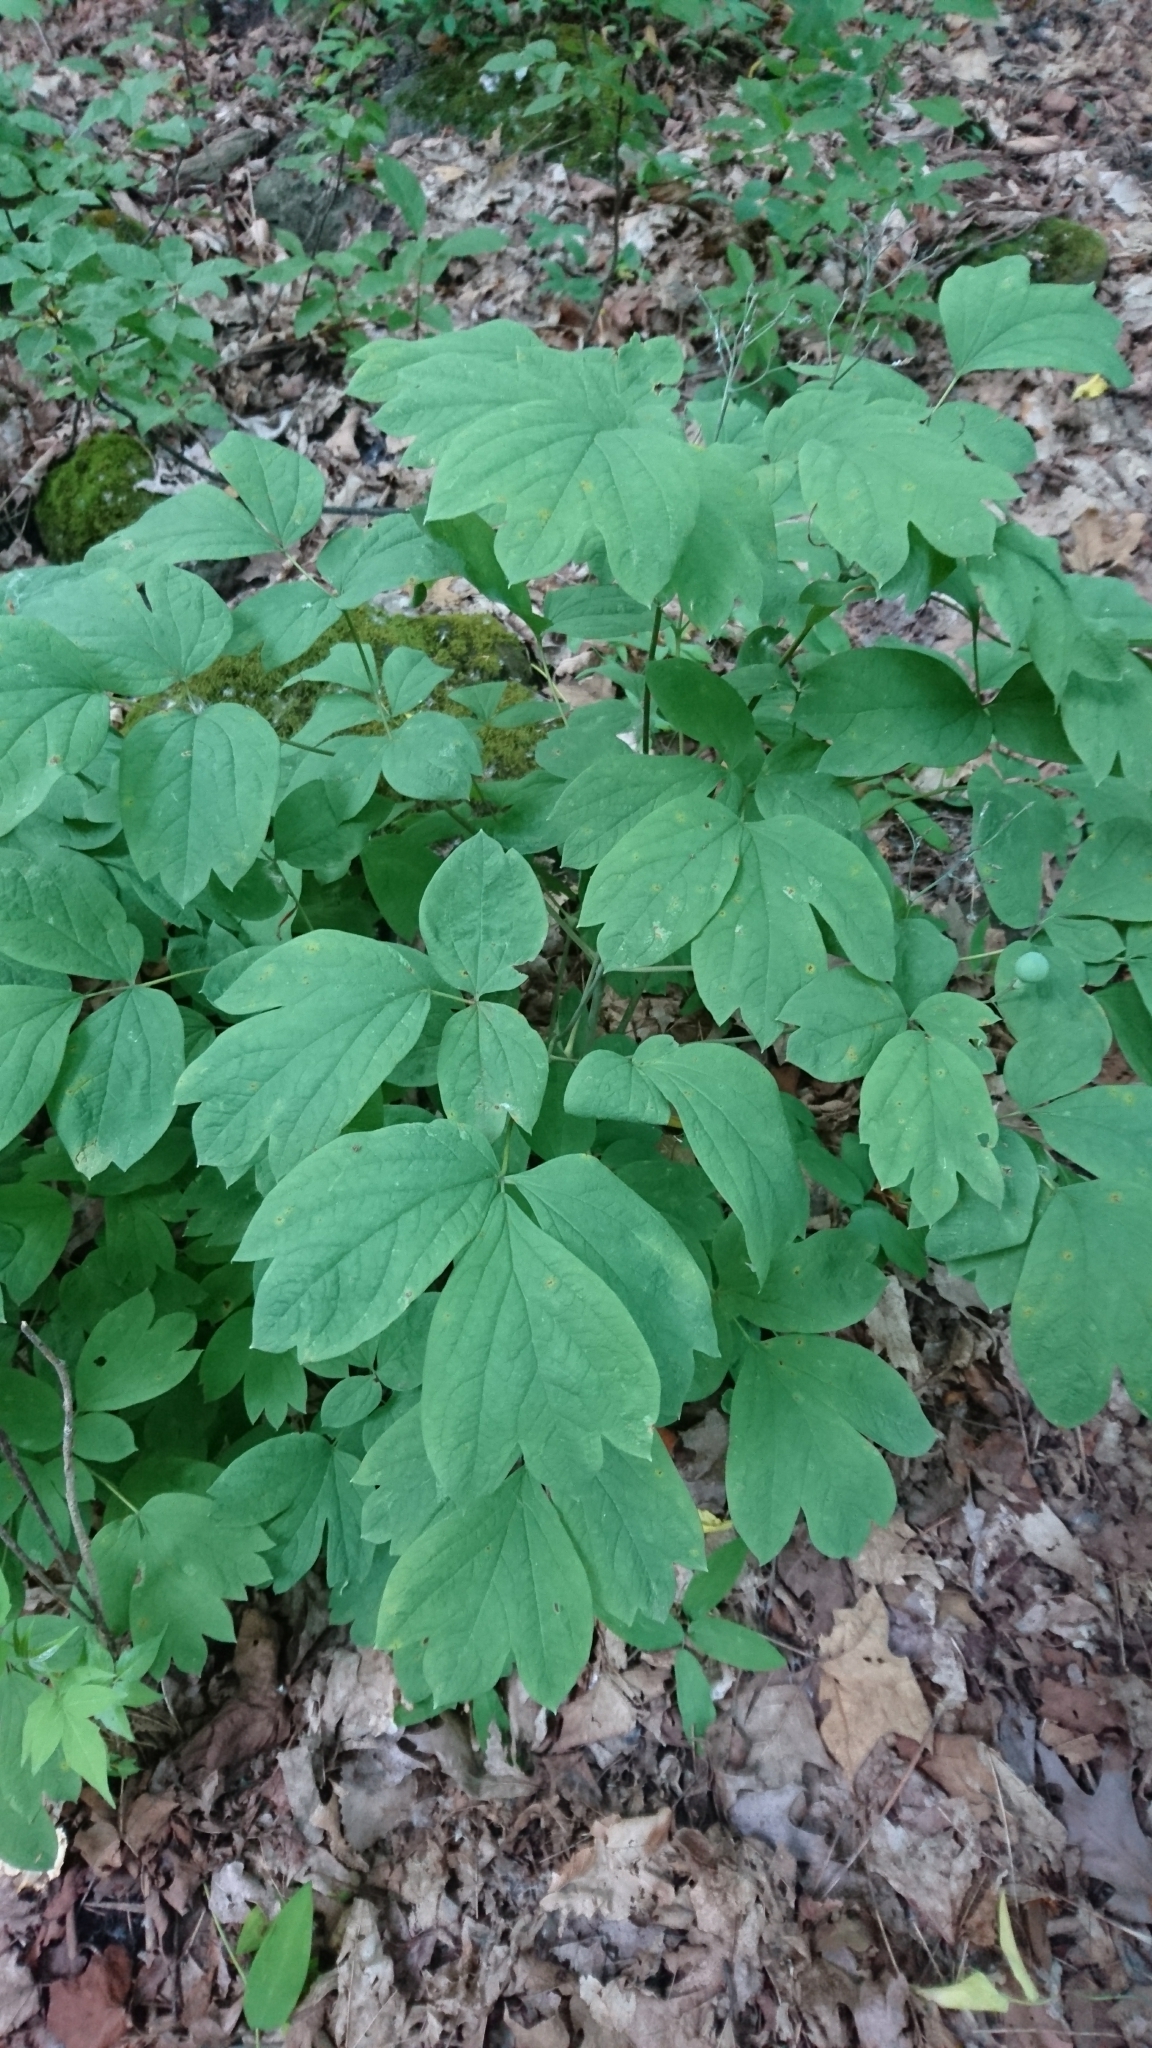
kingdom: Plantae
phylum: Tracheophyta
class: Magnoliopsida
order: Ranunculales
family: Berberidaceae
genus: Caulophyllum
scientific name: Caulophyllum thalictroides
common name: Blue cohosh
